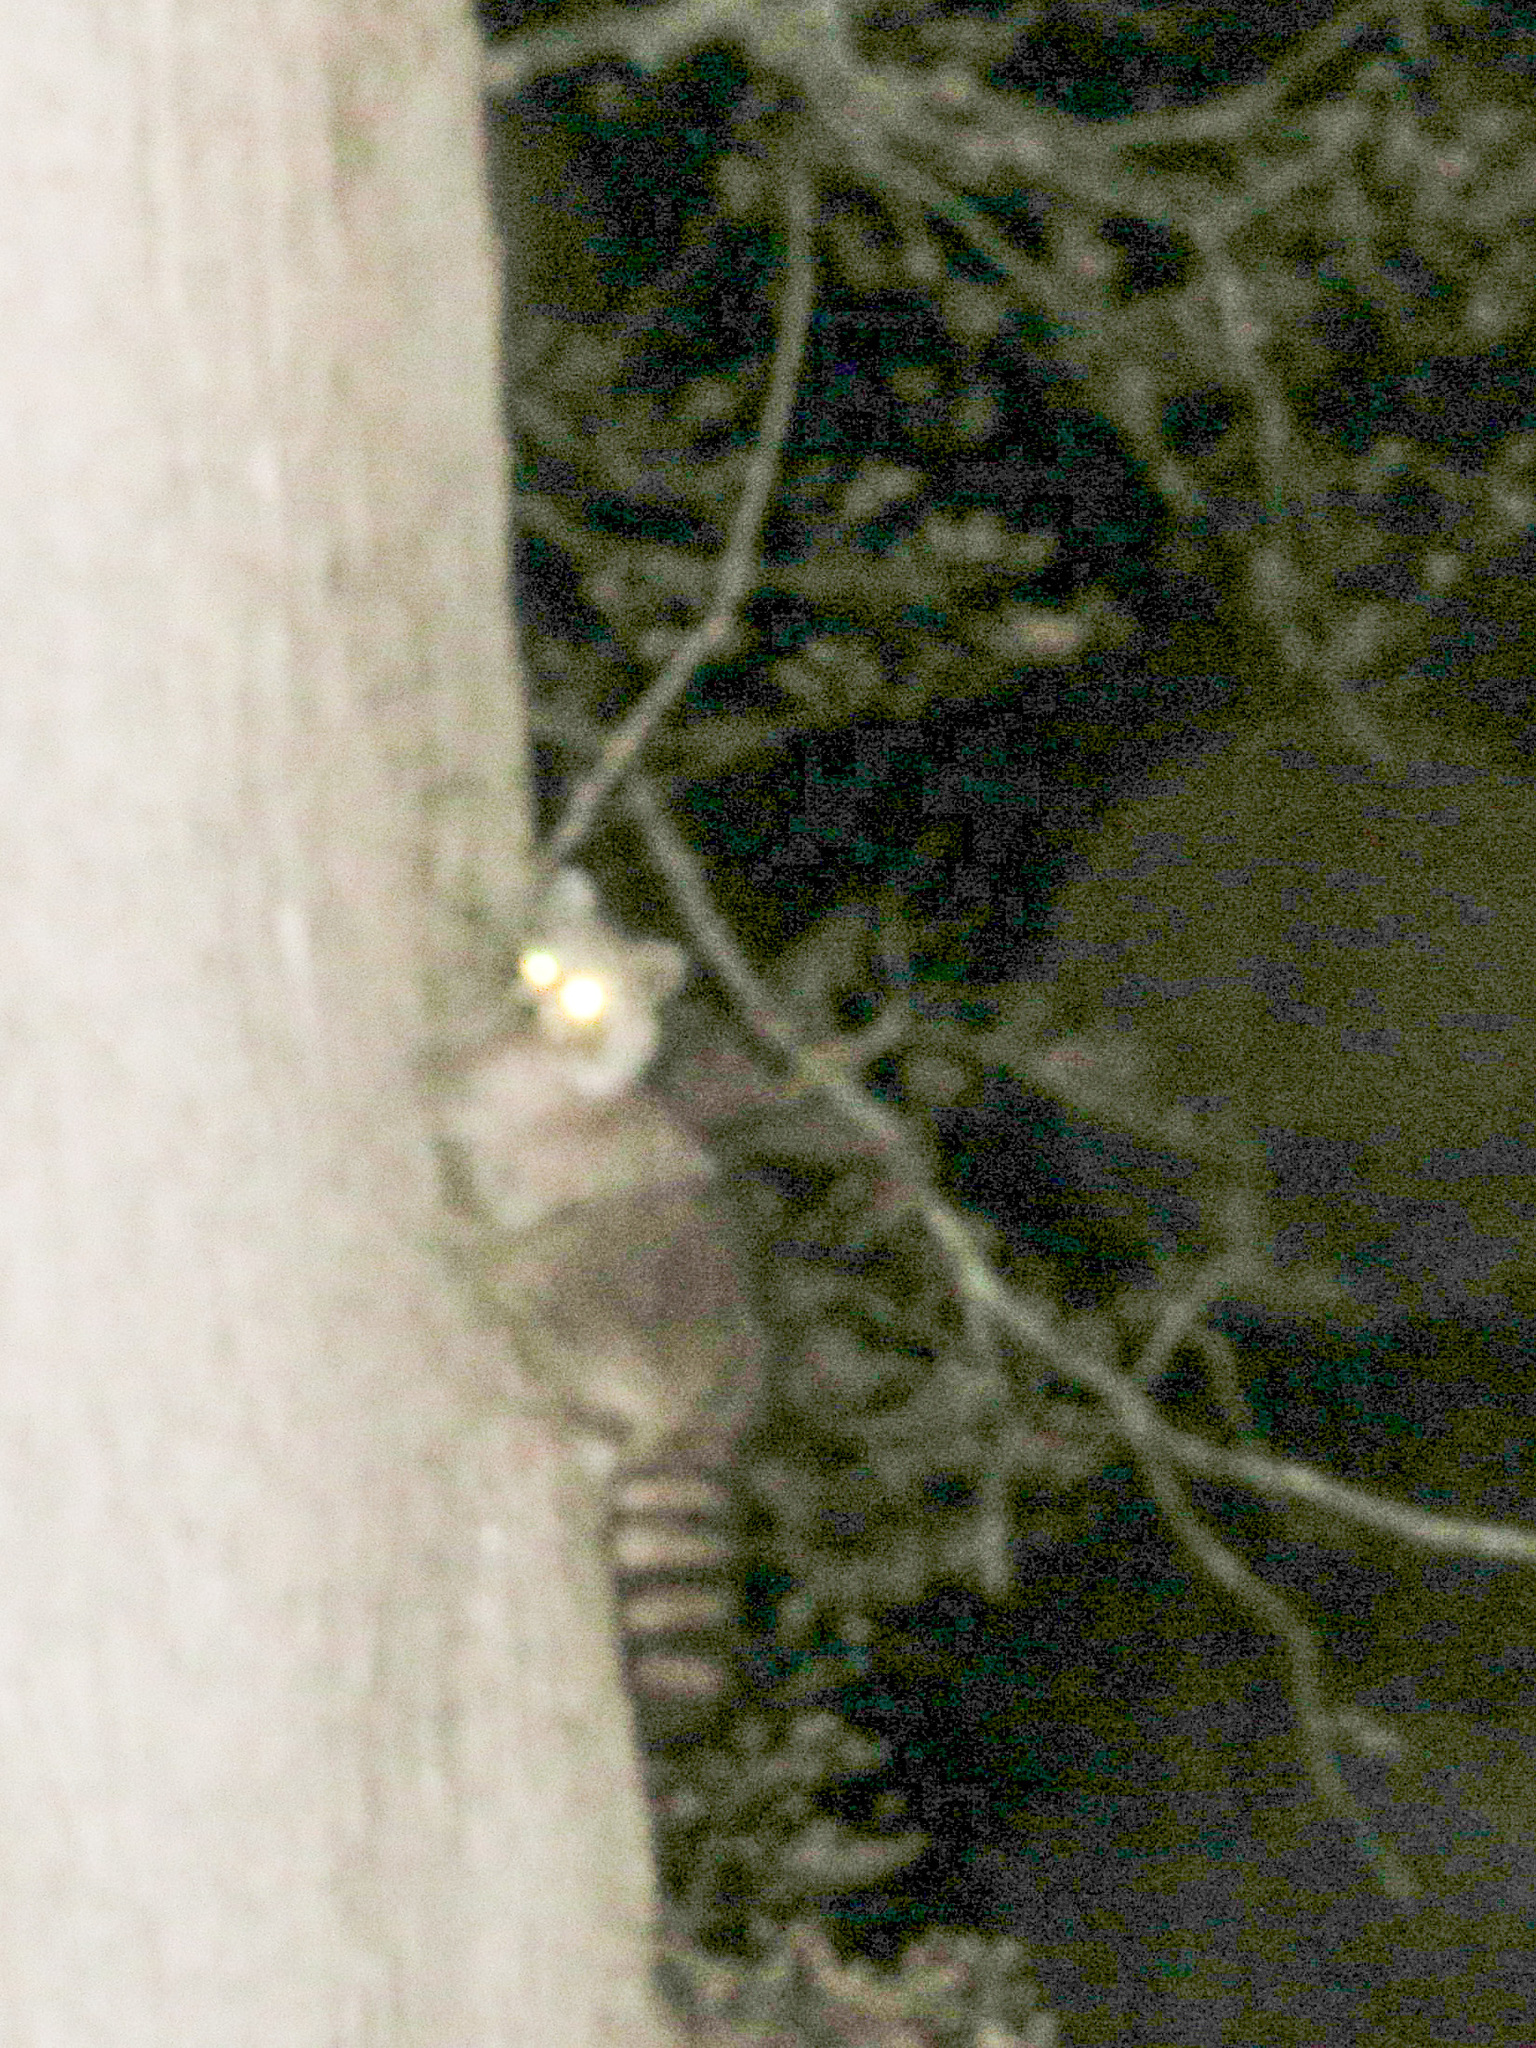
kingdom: Animalia
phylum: Chordata
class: Mammalia
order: Carnivora
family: Procyonidae
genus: Procyon
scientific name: Procyon lotor
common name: Raccoon
